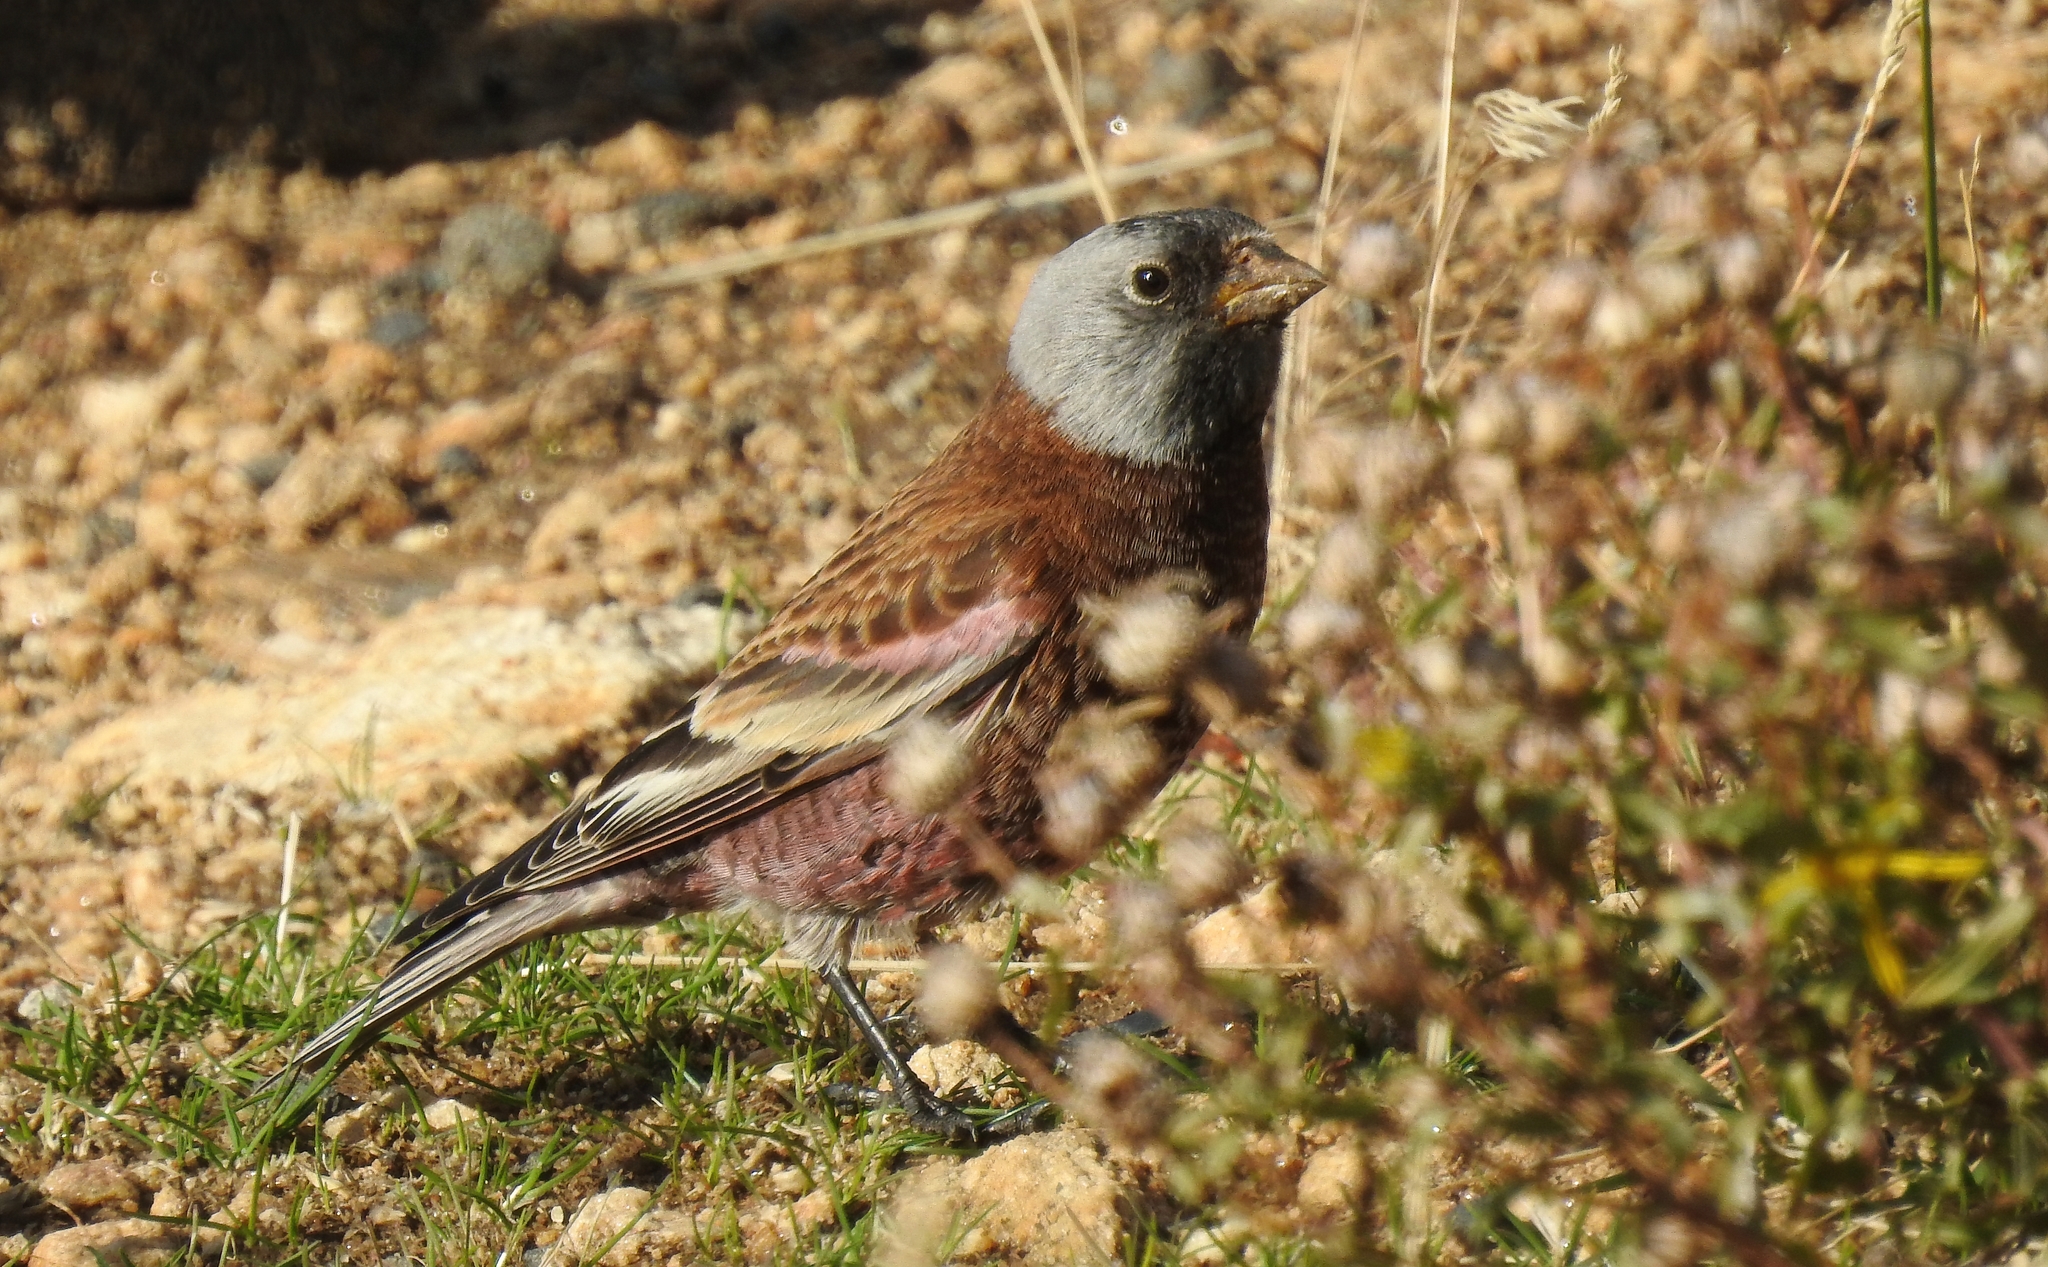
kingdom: Animalia
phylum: Chordata
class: Aves
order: Passeriformes
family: Fringillidae
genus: Leucosticte
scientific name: Leucosticte tephrocotis
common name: Gray-crowned rosy-finch
